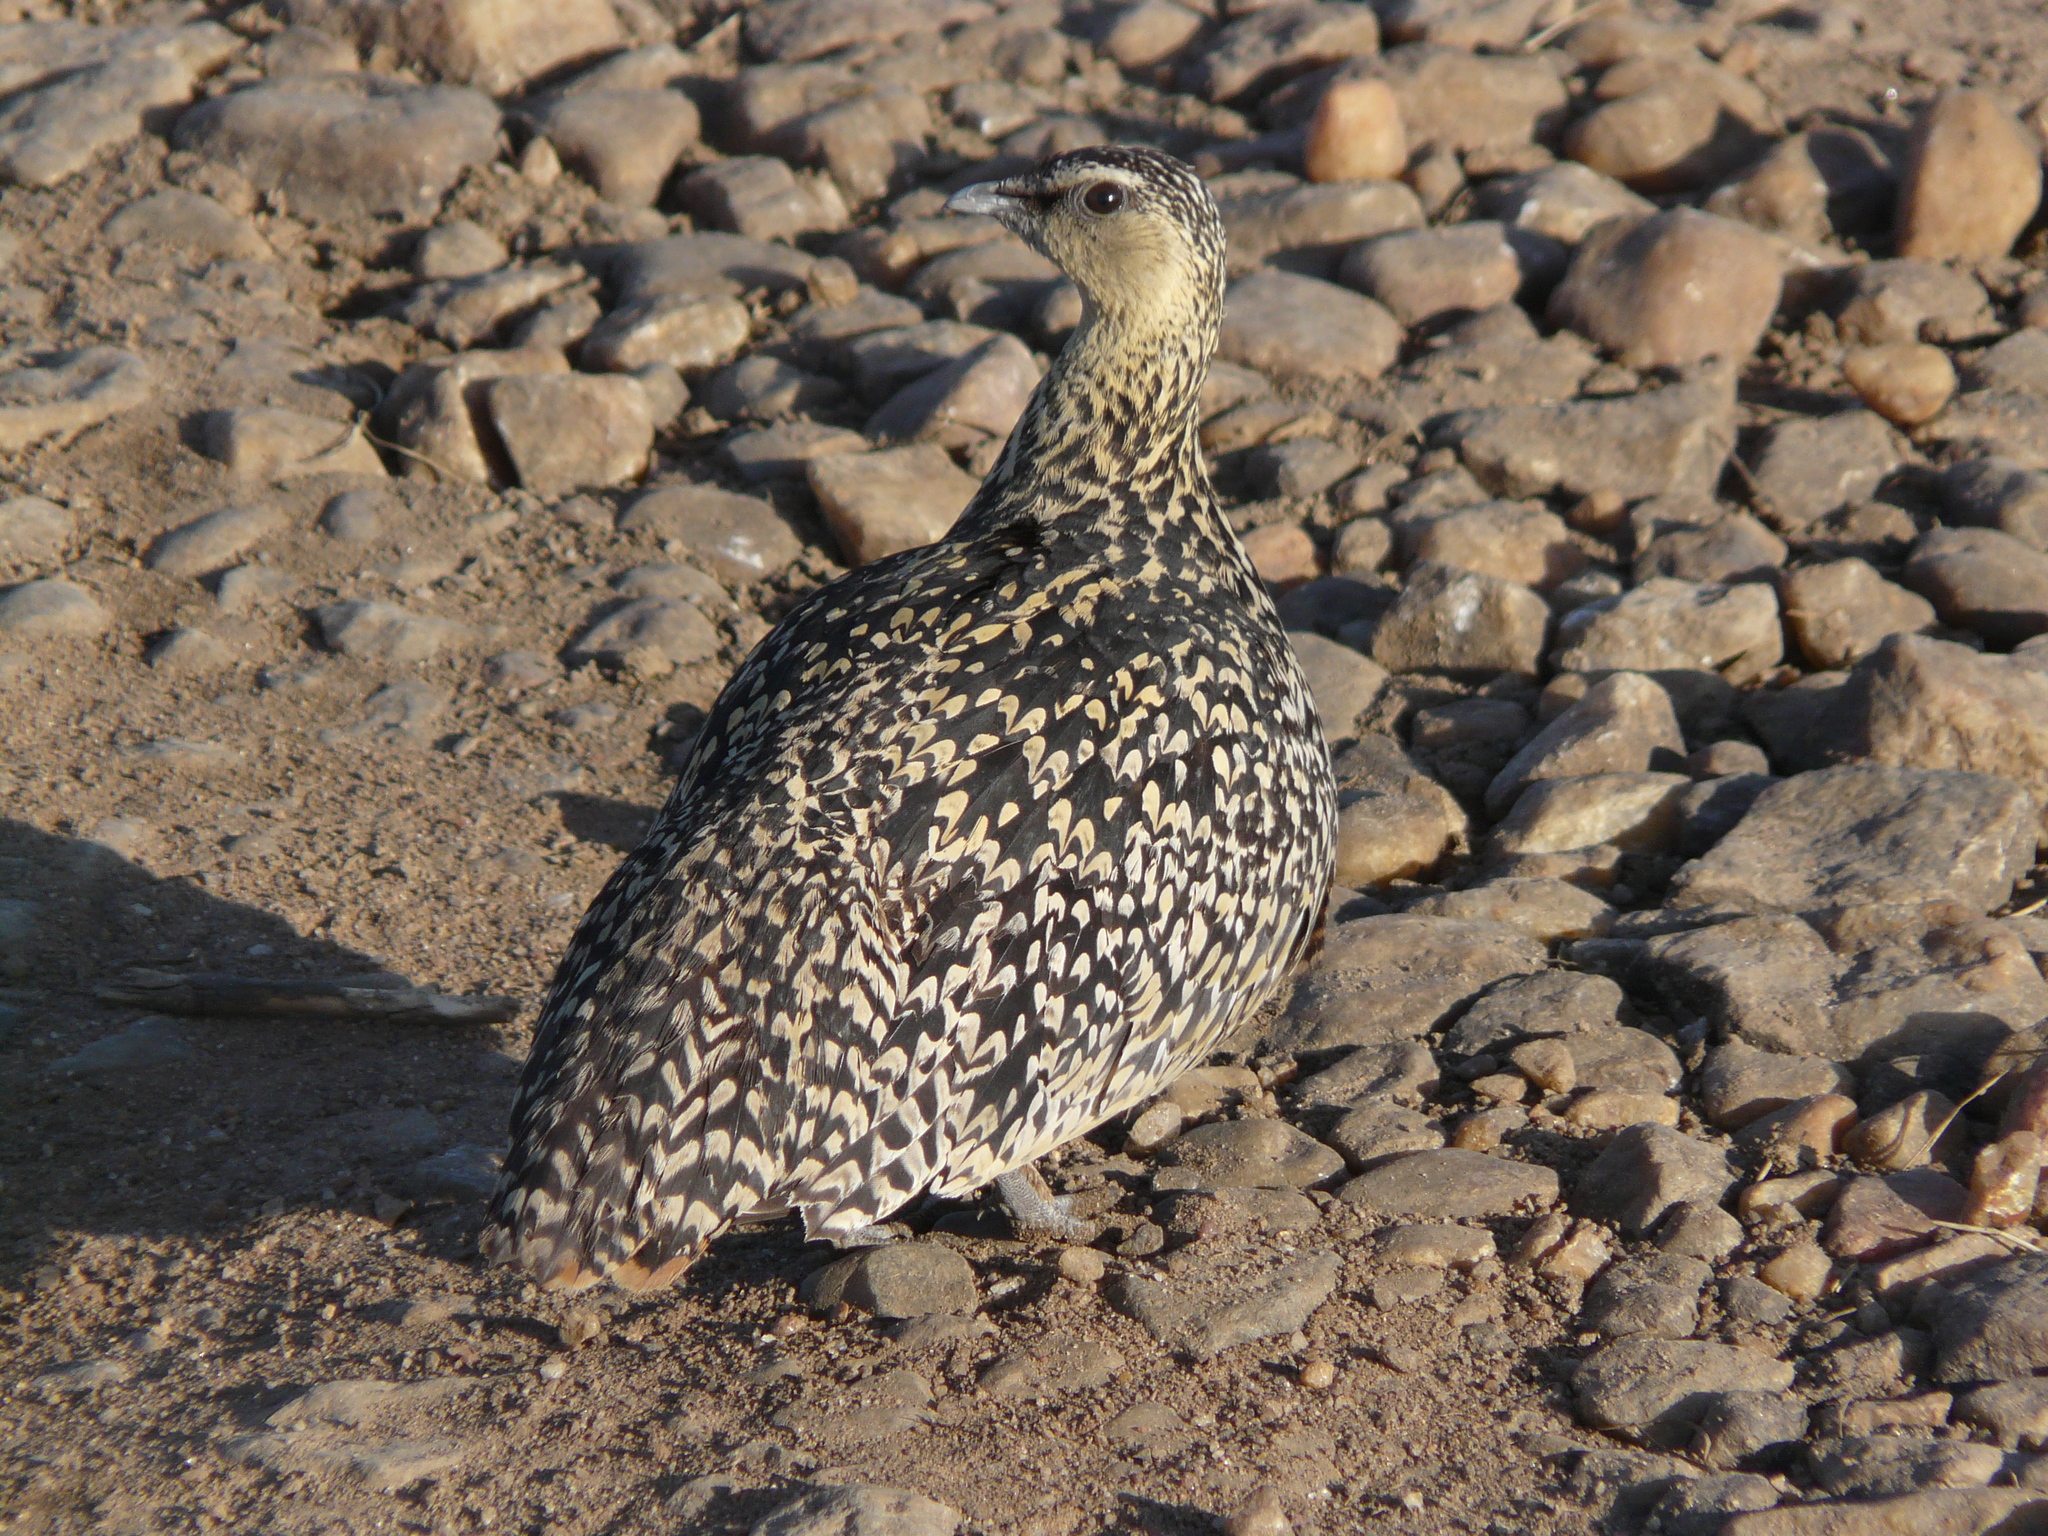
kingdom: Animalia
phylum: Chordata
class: Aves
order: Pteroclidiformes
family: Pteroclididae
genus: Pterocles
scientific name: Pterocles gutturalis
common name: Yellow-throated sandgrouse
